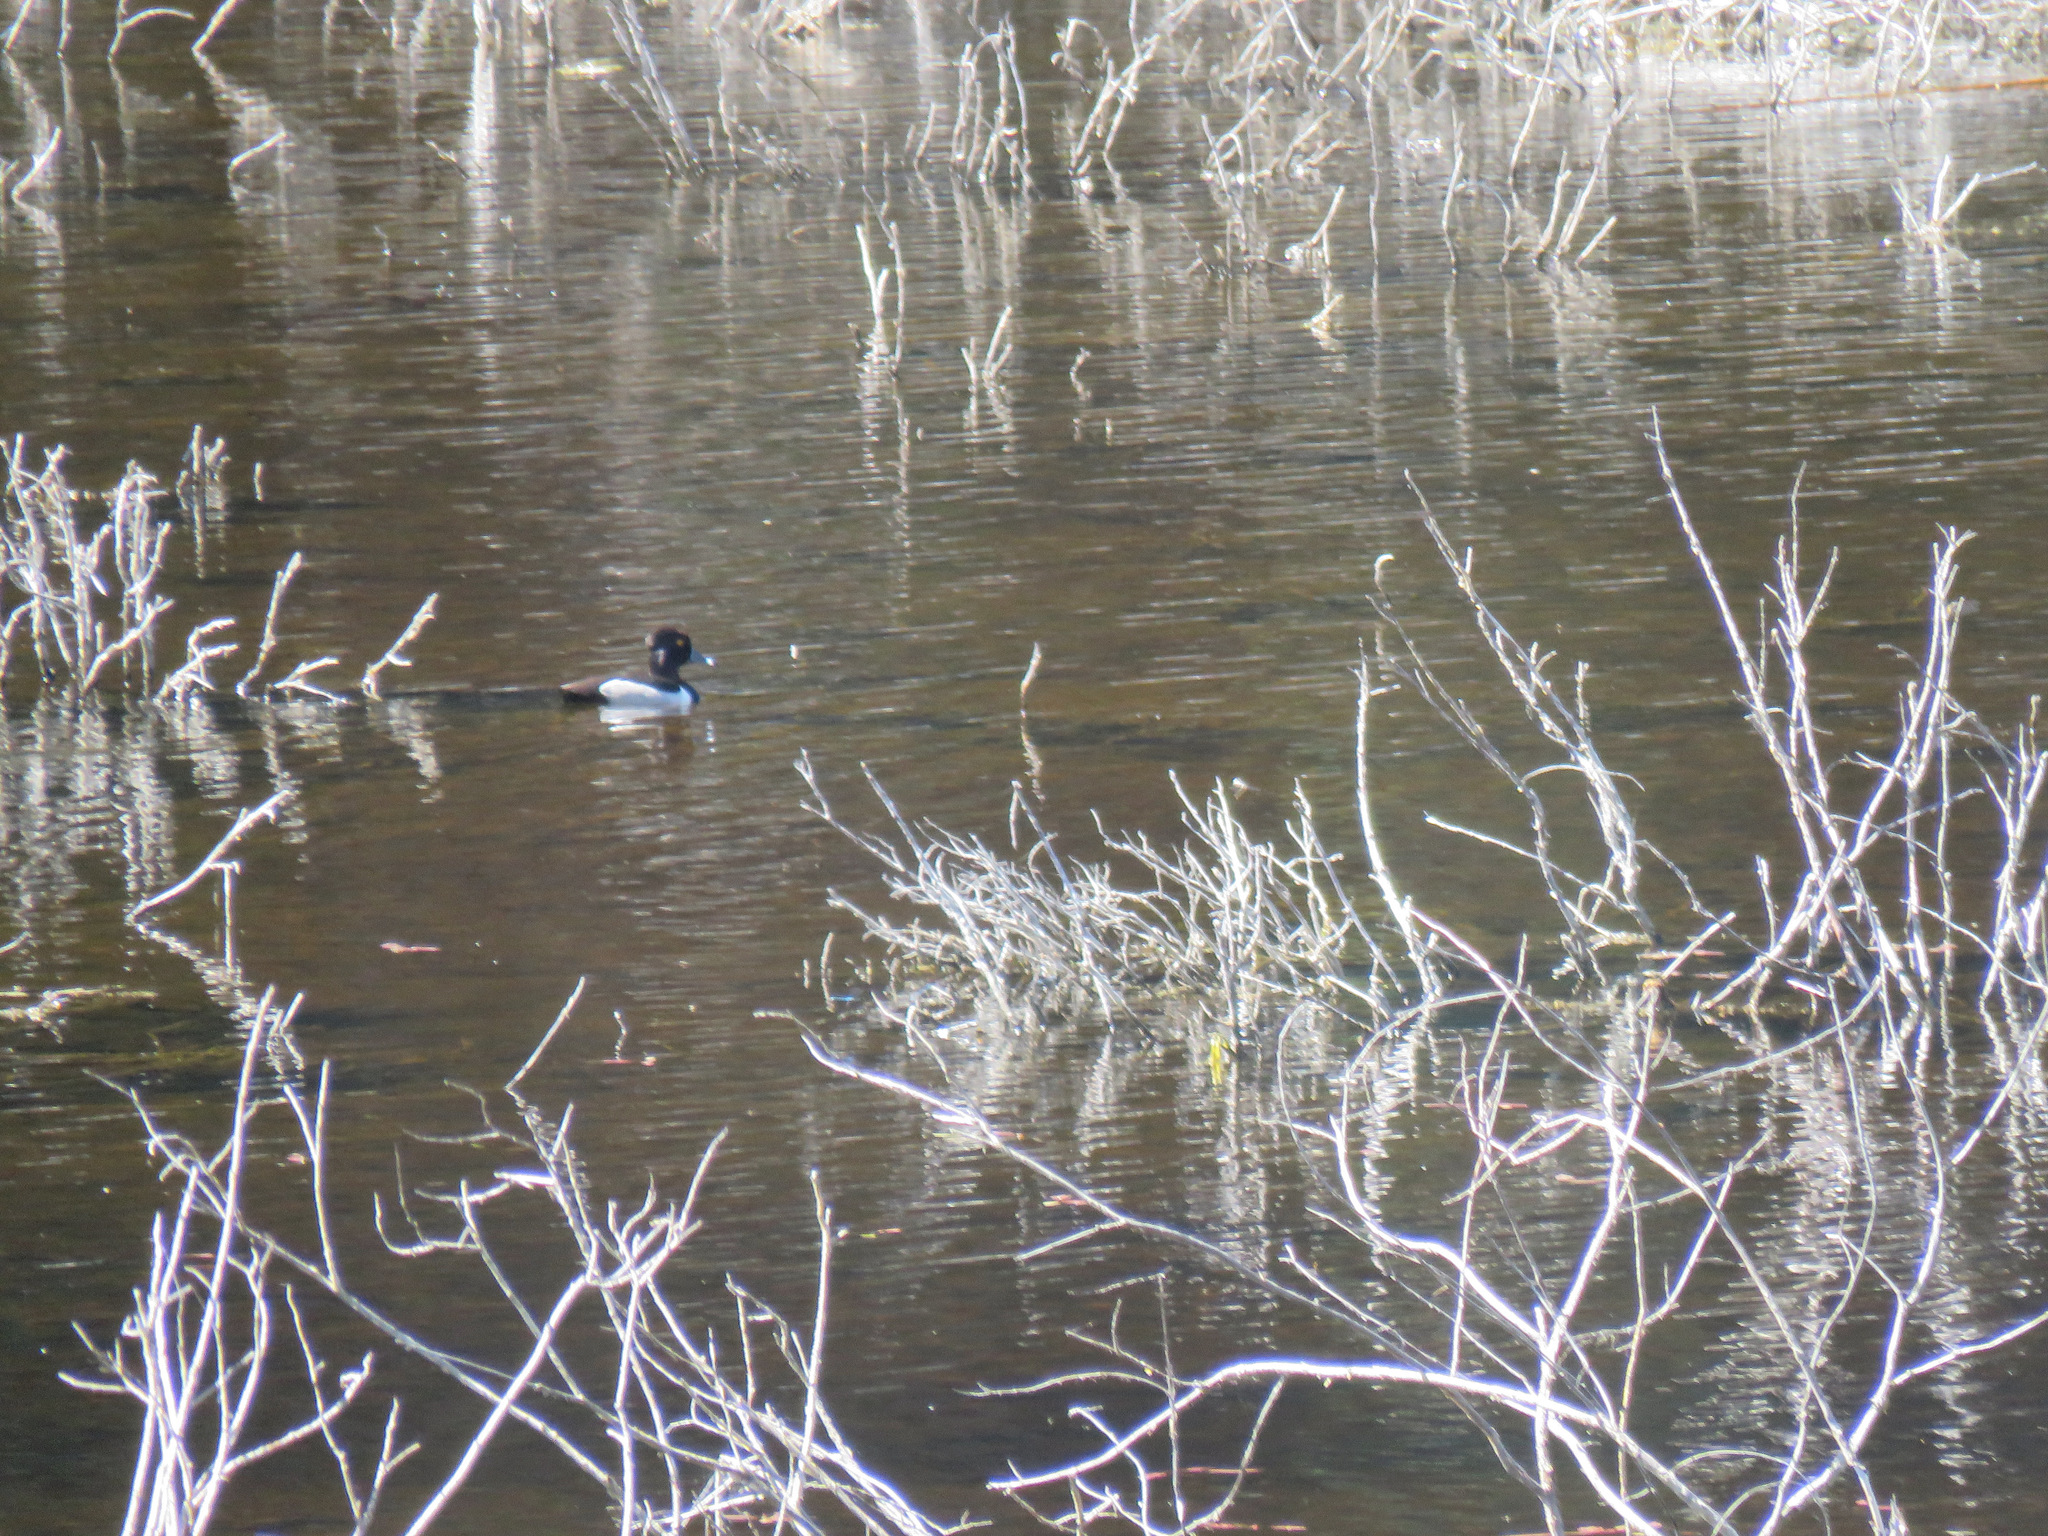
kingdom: Animalia
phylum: Chordata
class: Aves
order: Anseriformes
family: Anatidae
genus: Aythya
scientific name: Aythya collaris
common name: Ring-necked duck
